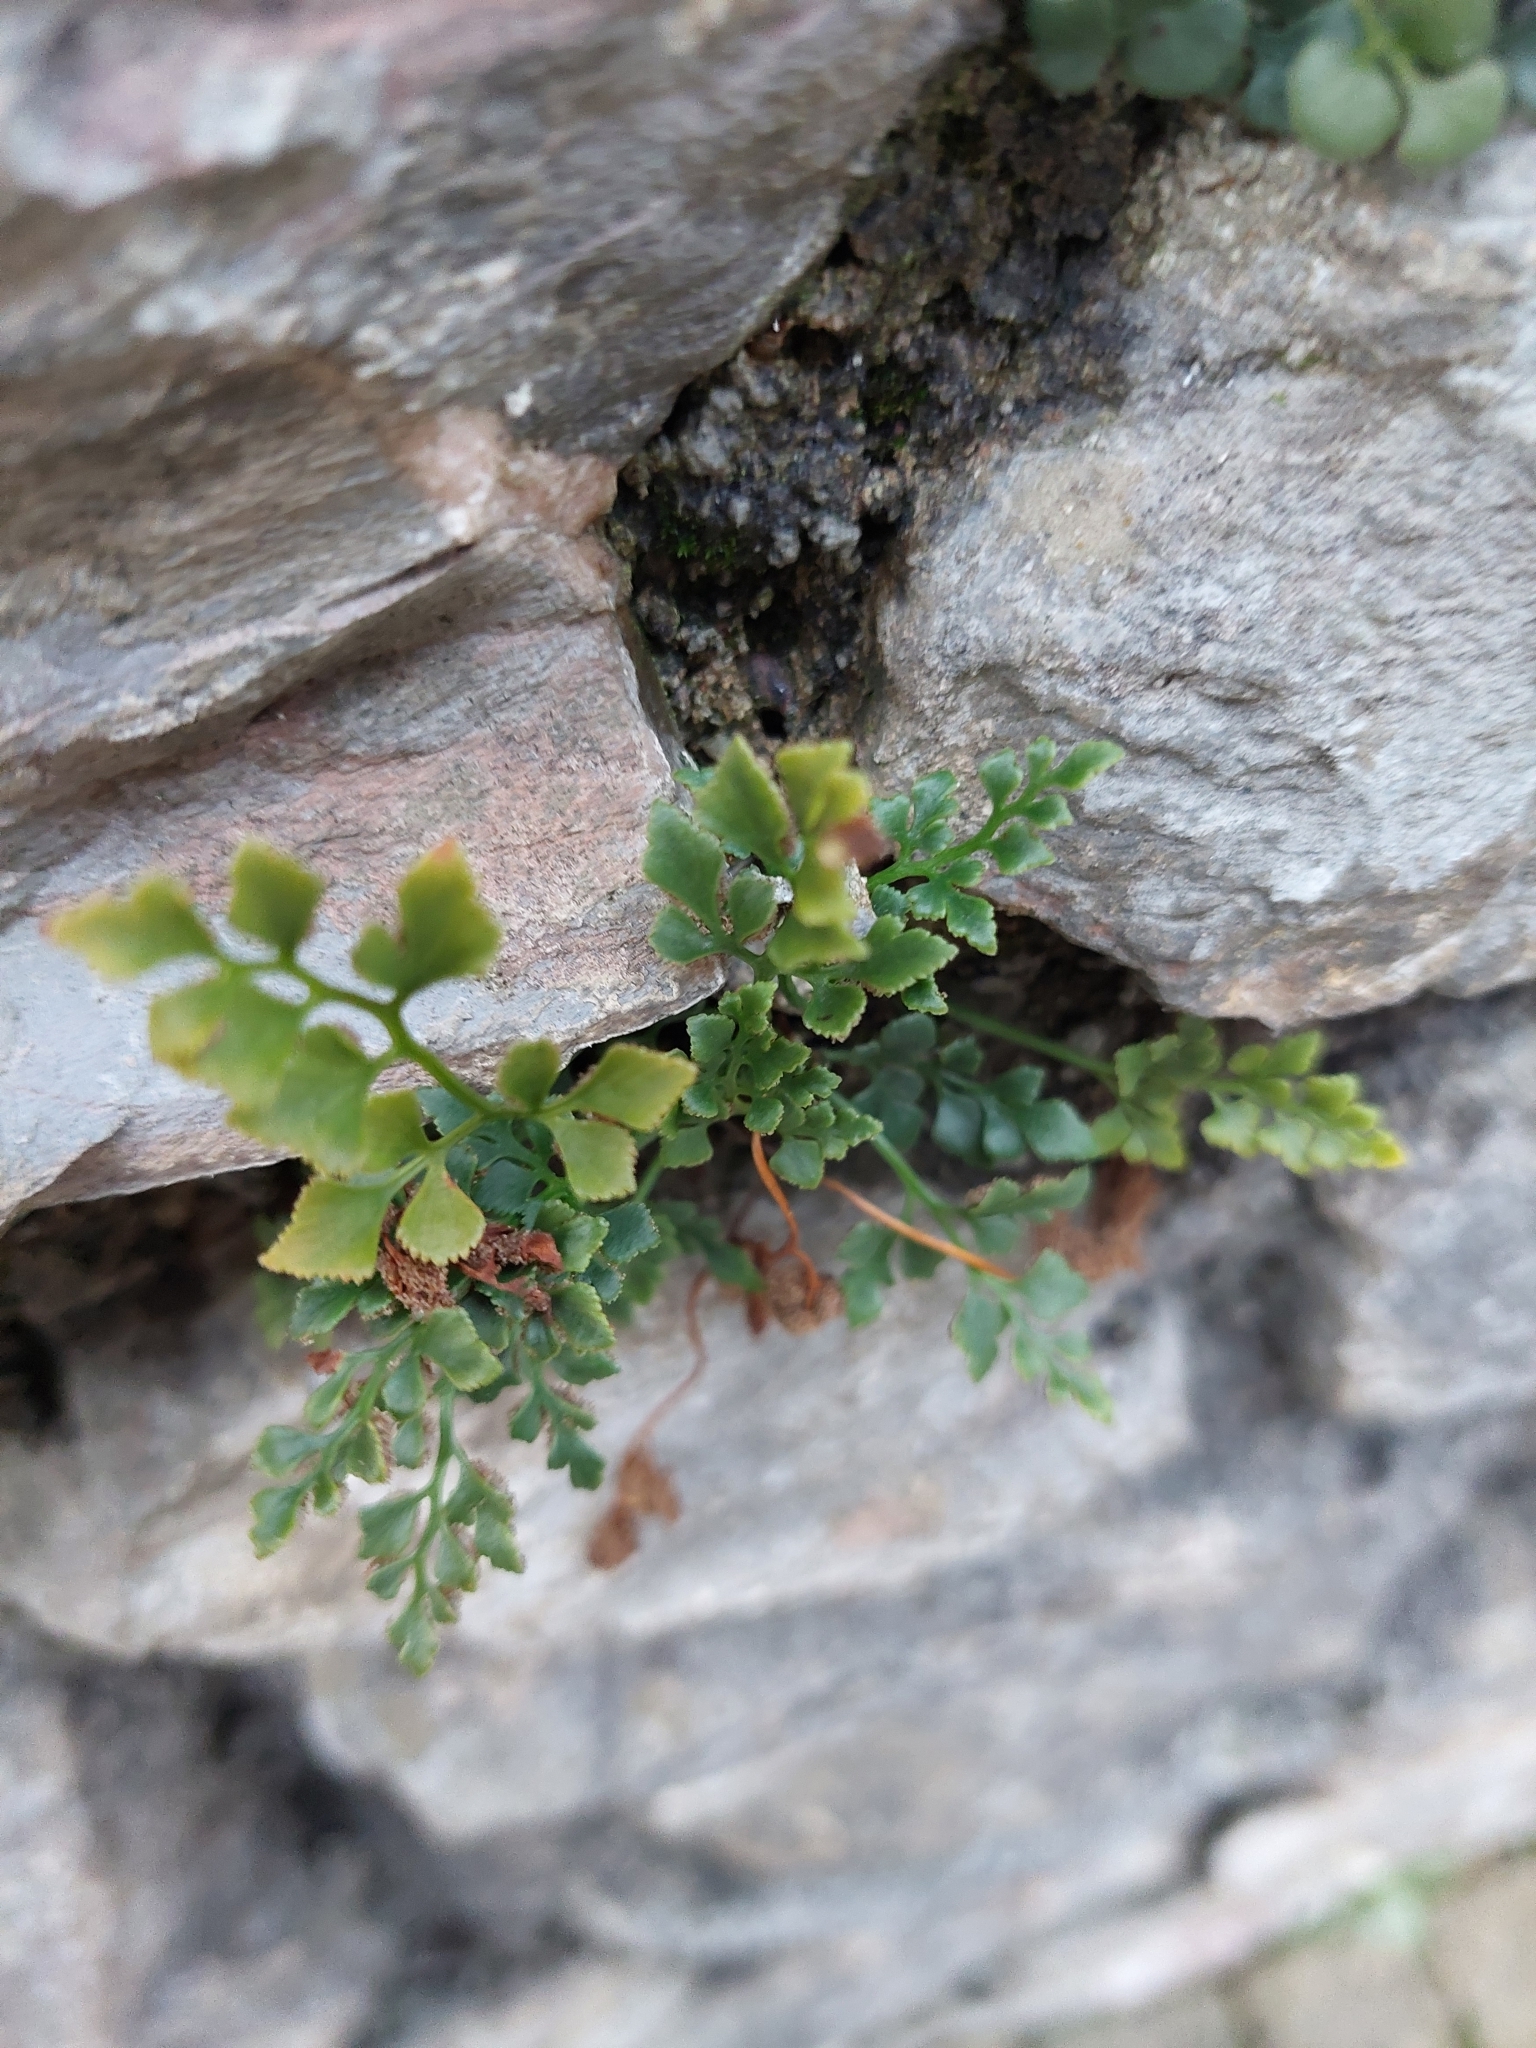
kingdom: Plantae
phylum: Tracheophyta
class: Polypodiopsida
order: Polypodiales
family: Aspleniaceae
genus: Asplenium
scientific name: Asplenium ruta-muraria
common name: Wall-rue
